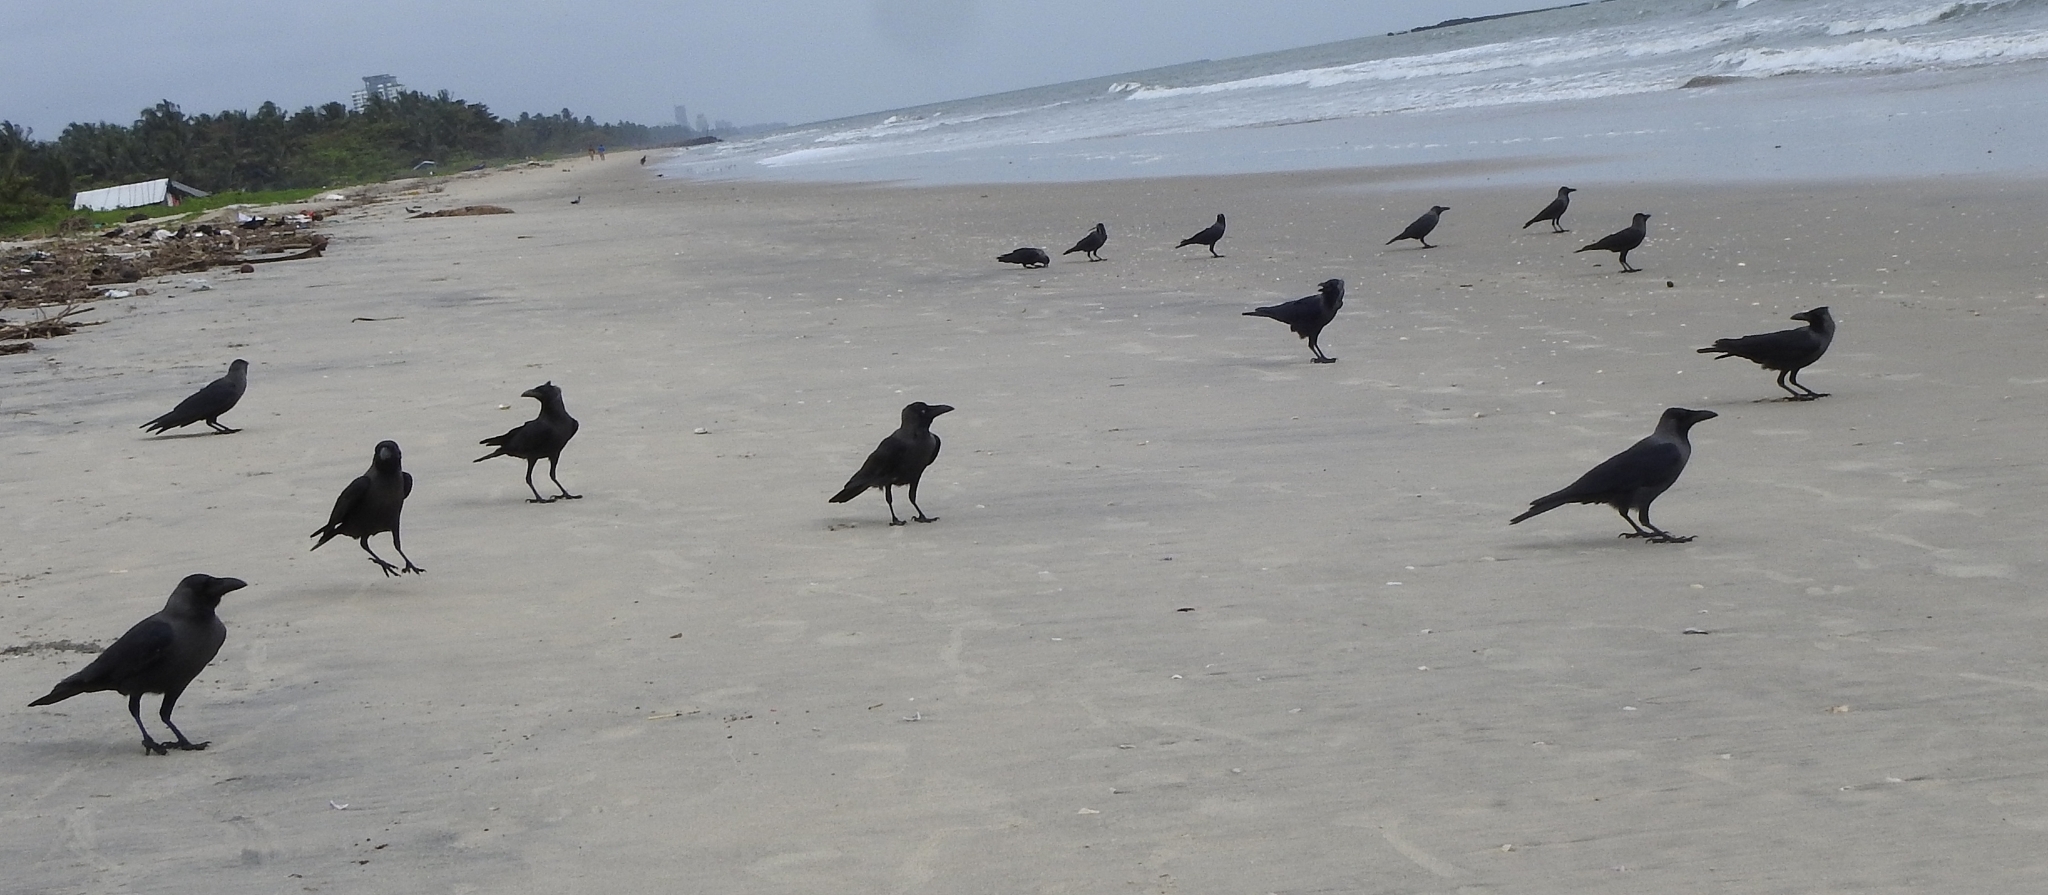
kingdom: Animalia
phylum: Chordata
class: Aves
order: Passeriformes
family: Corvidae
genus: Corvus
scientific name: Corvus splendens
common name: House crow
